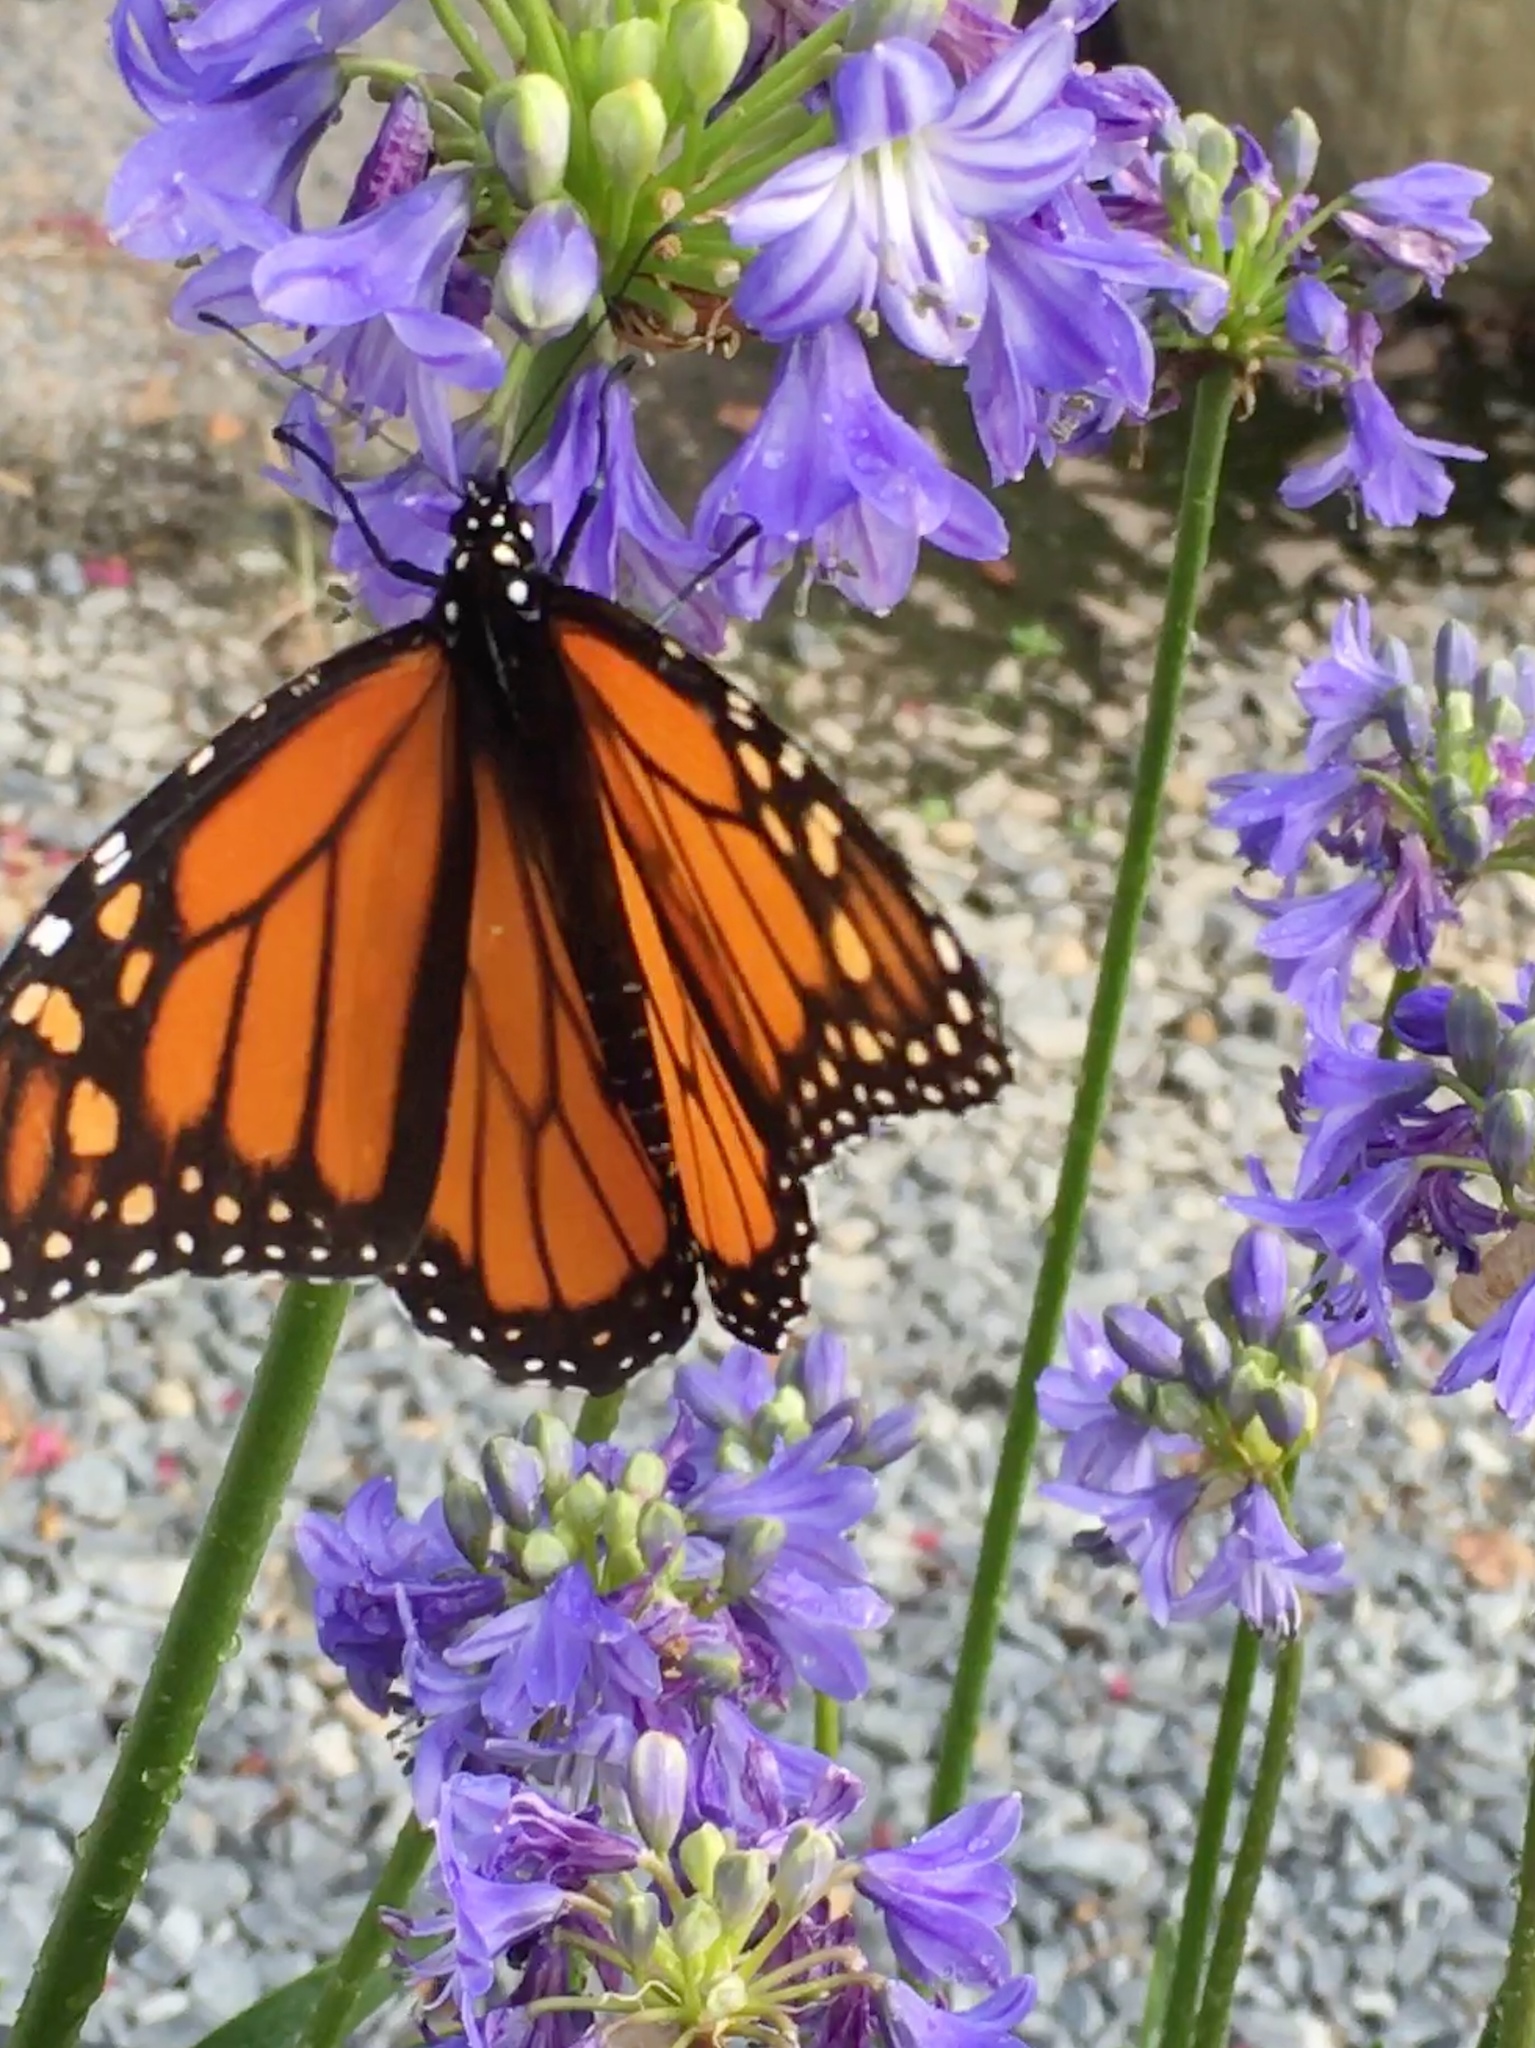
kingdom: Animalia
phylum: Arthropoda
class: Insecta
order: Lepidoptera
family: Nymphalidae
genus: Danaus
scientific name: Danaus plexippus
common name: Monarch
